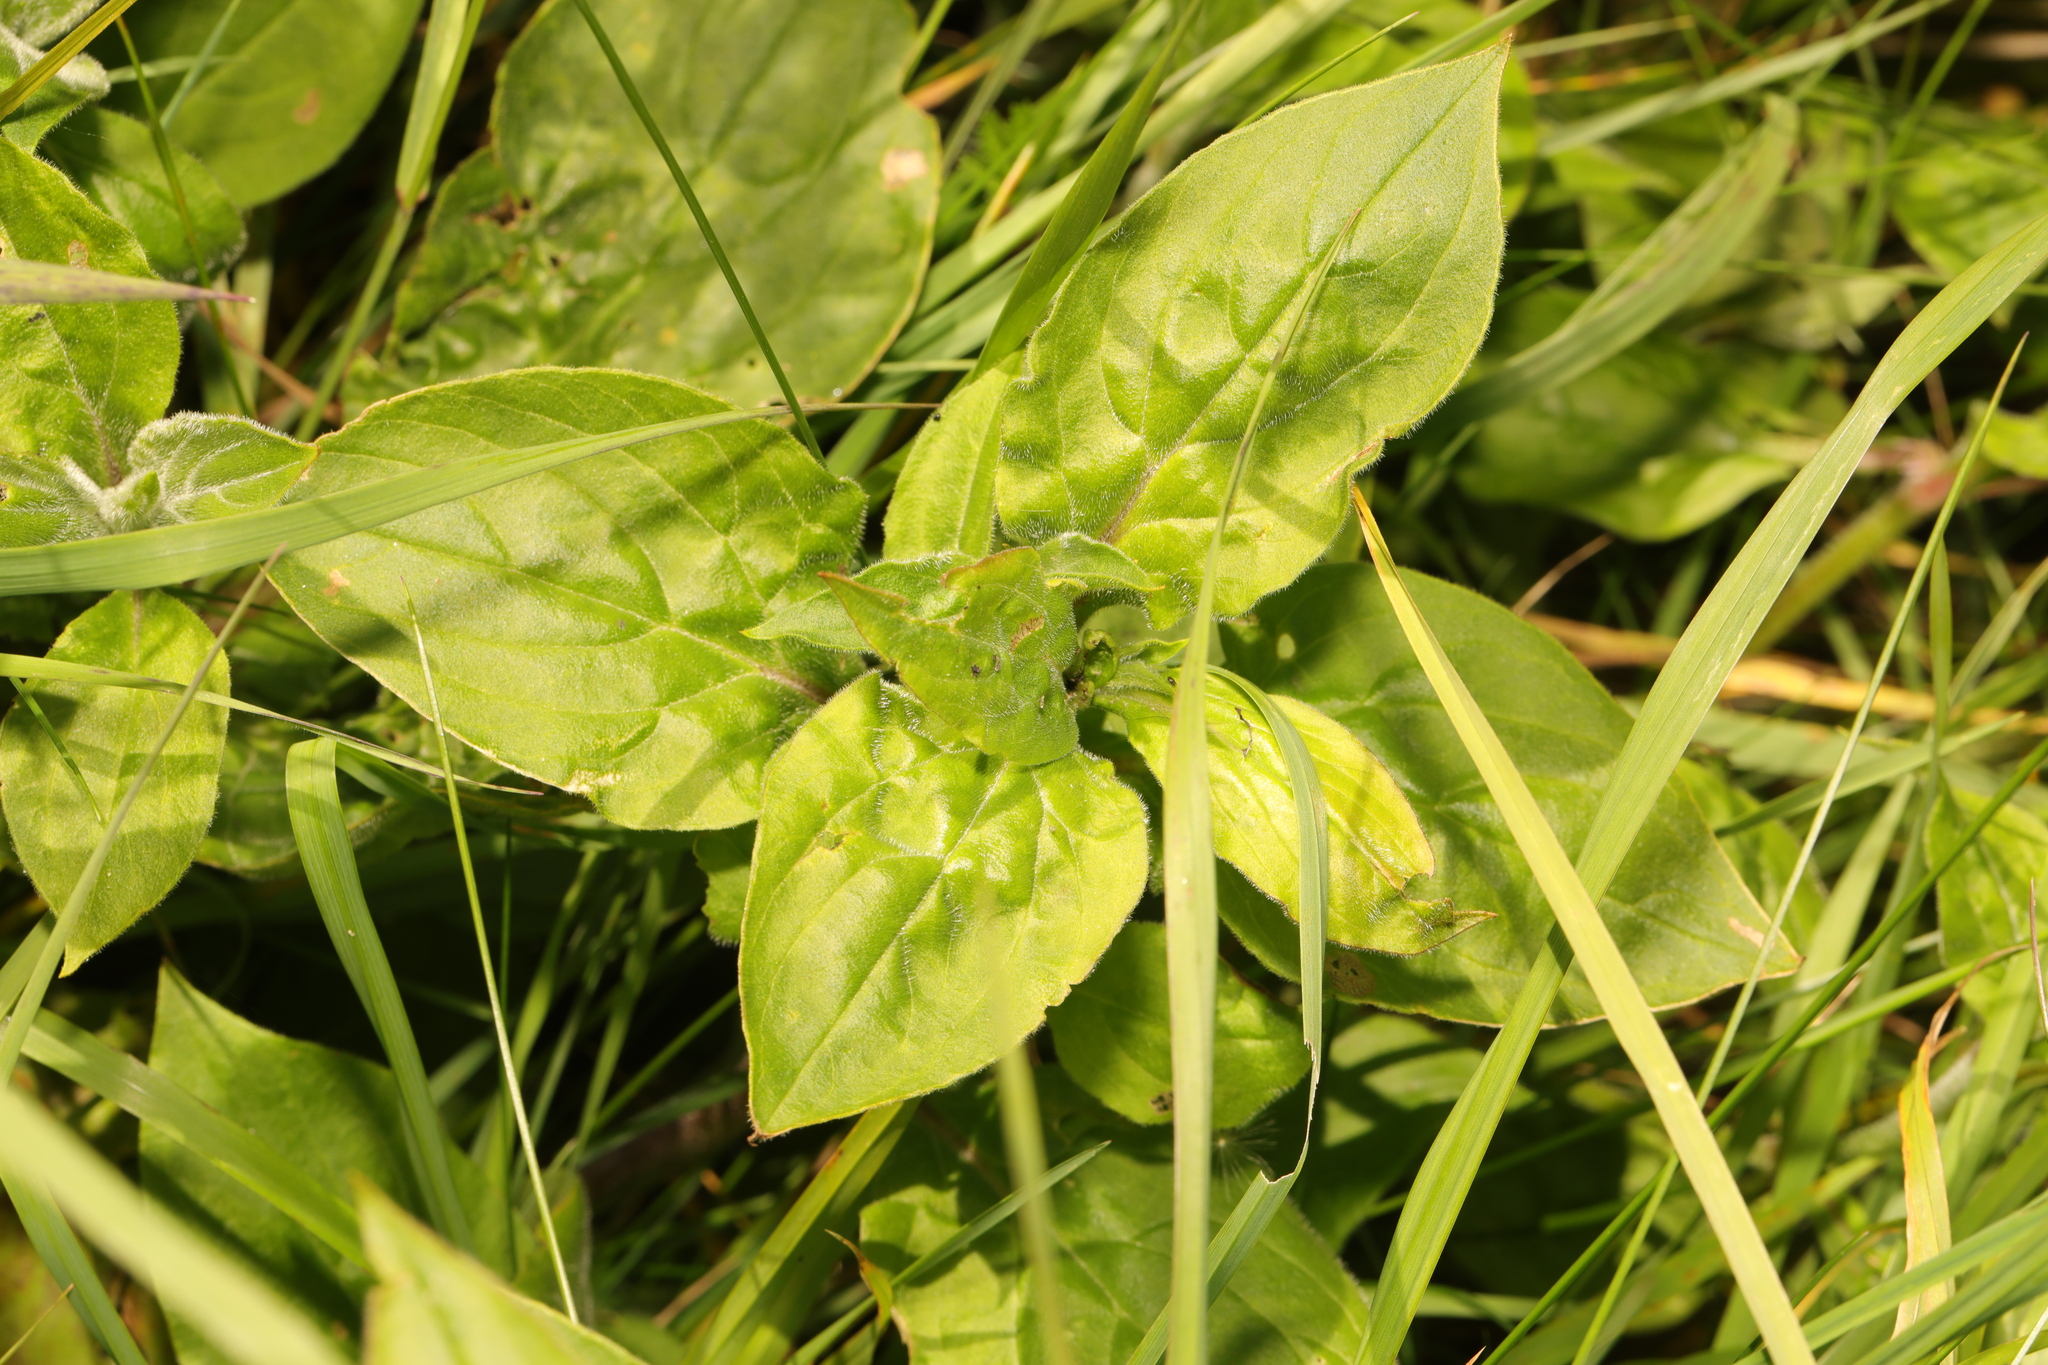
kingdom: Plantae
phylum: Tracheophyta
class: Magnoliopsida
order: Caryophyllales
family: Caryophyllaceae
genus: Silene
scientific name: Silene dioica
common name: Red campion
